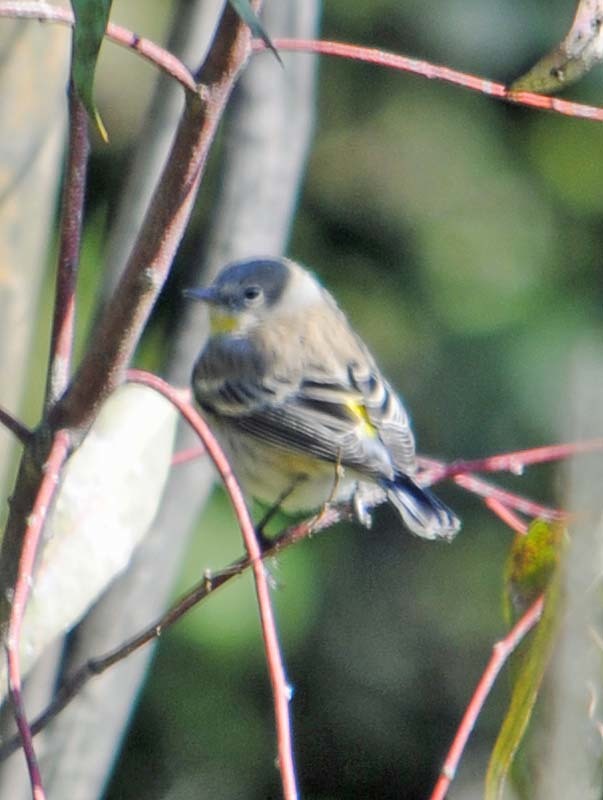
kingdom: Animalia
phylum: Chordata
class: Aves
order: Passeriformes
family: Parulidae
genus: Setophaga
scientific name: Setophaga coronata
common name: Myrtle warbler
